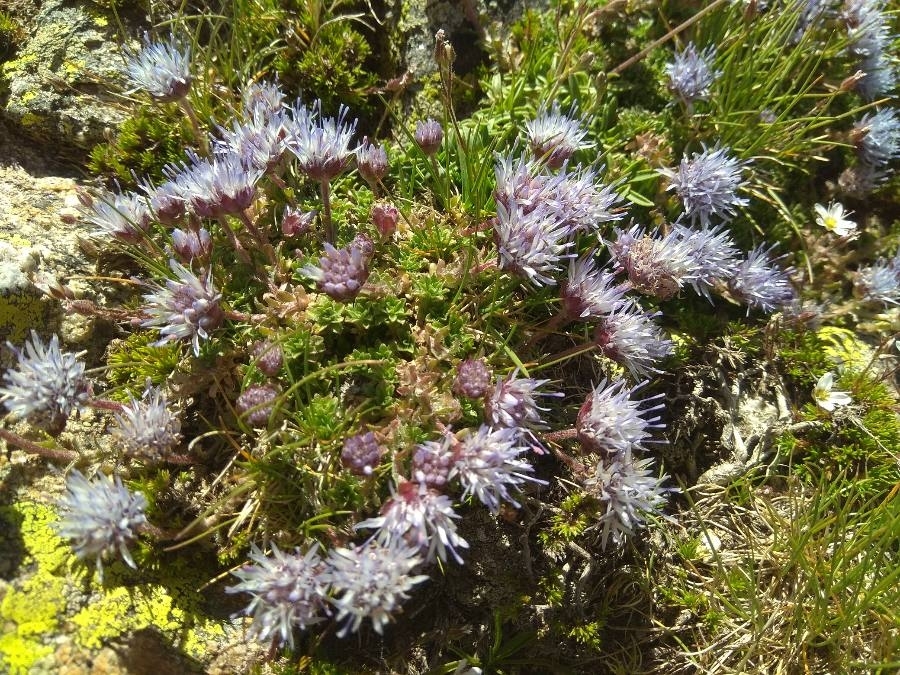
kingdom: Plantae
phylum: Tracheophyta
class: Magnoliopsida
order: Asterales
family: Campanulaceae
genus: Jasione
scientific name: Jasione crispa
